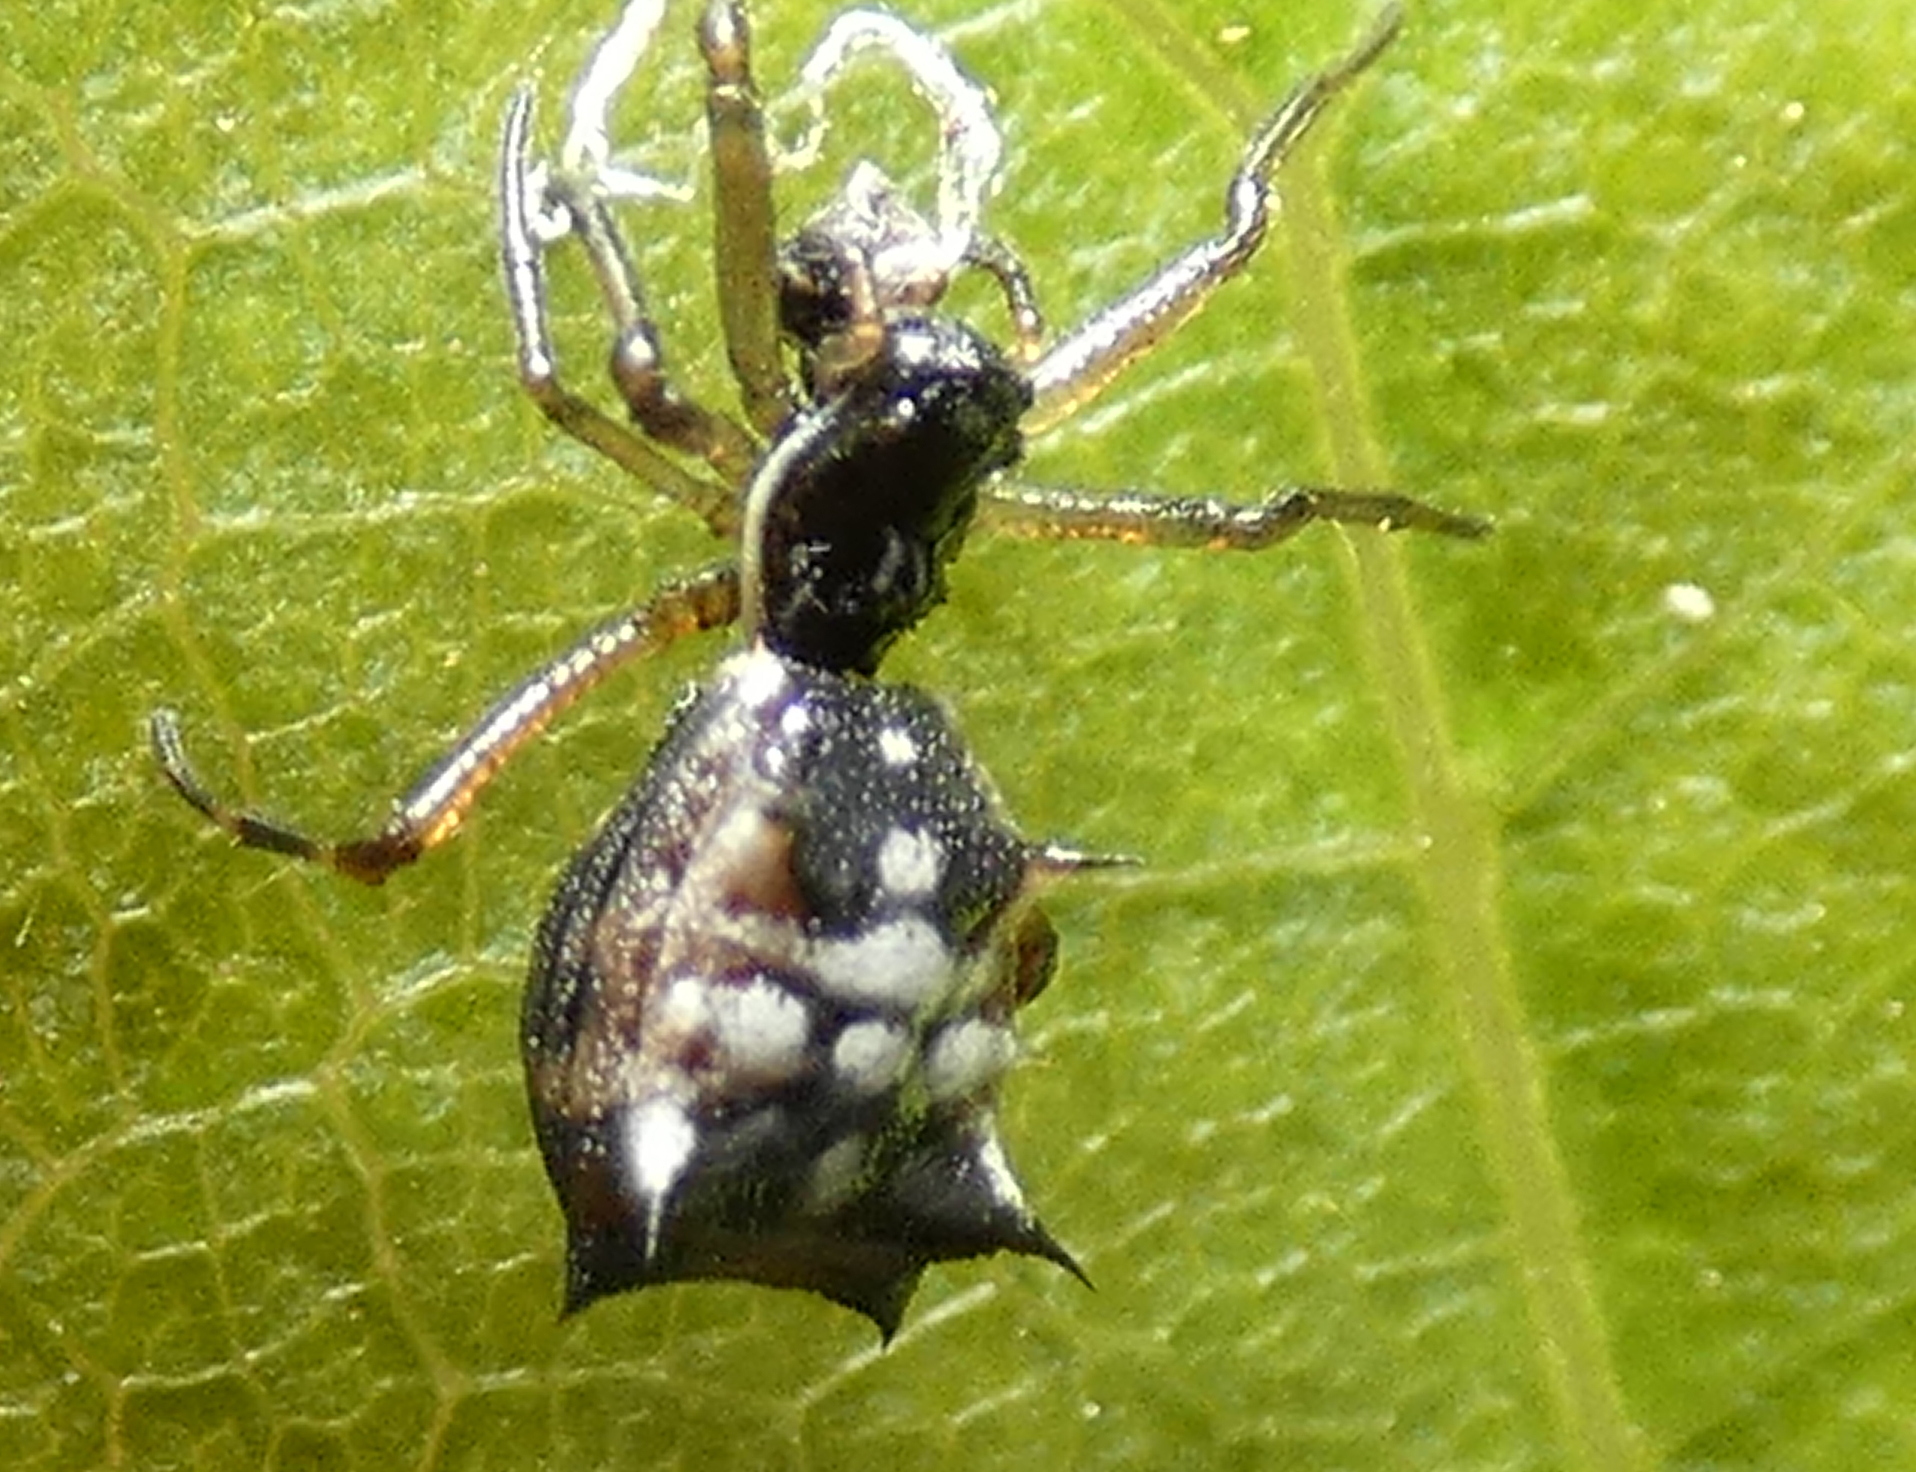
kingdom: Animalia
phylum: Arthropoda
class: Arachnida
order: Araneae
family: Araneidae
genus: Micrathena
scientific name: Micrathena picta
